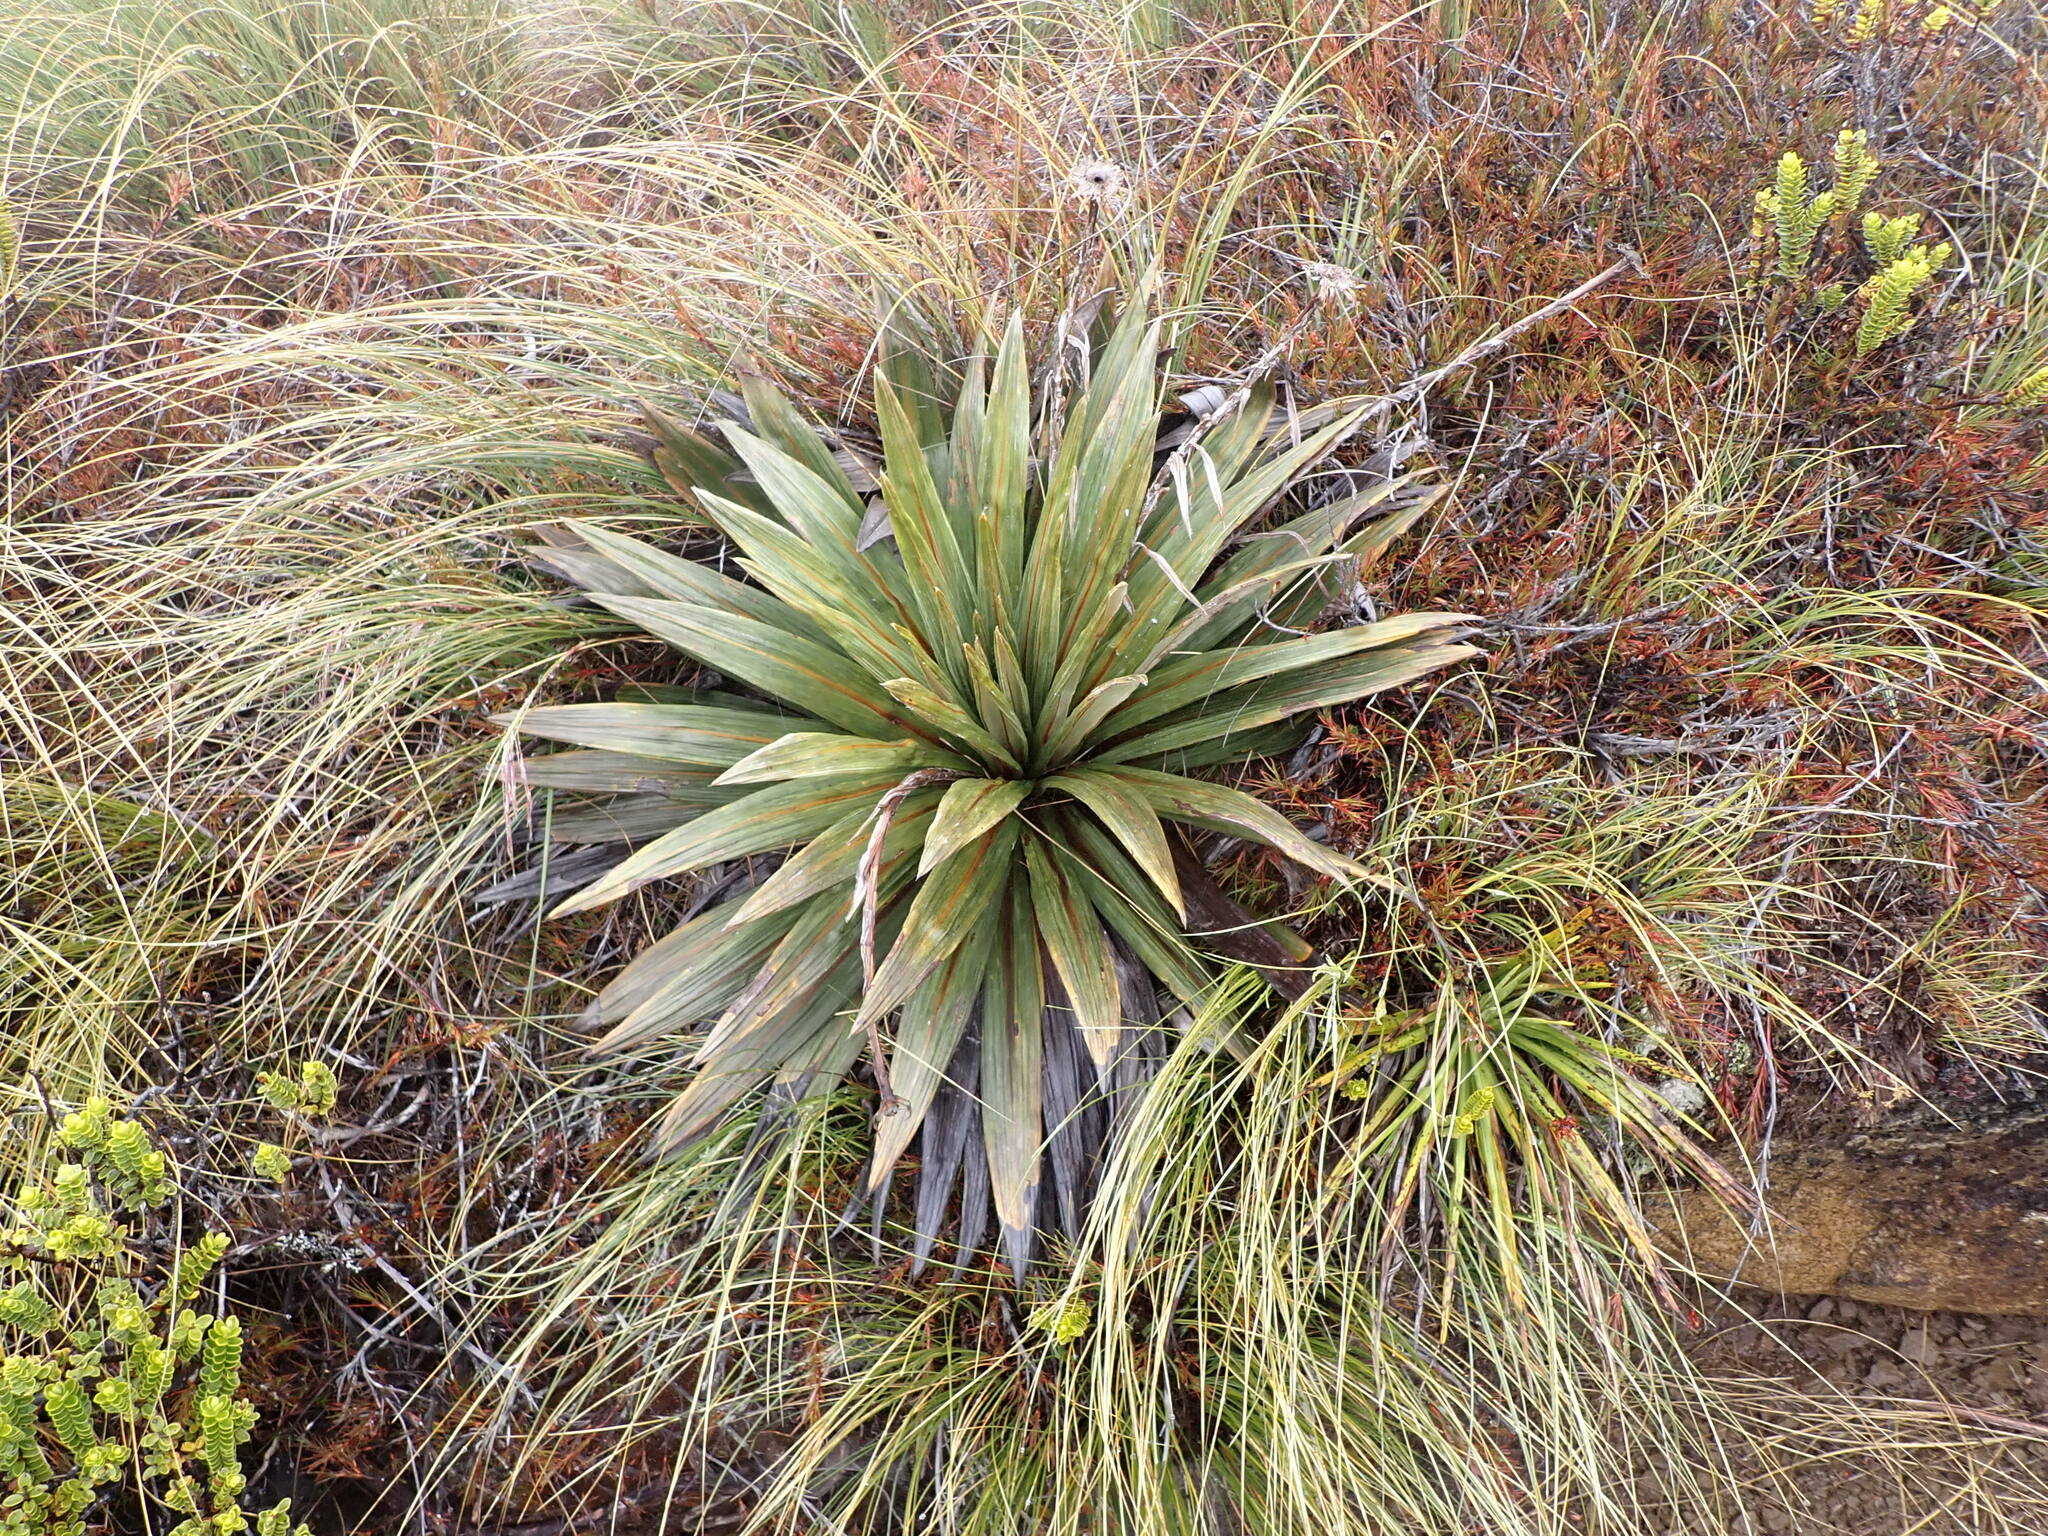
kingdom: Plantae
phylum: Tracheophyta
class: Magnoliopsida
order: Asterales
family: Asteraceae
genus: Celmisia
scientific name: Celmisia coriacea
